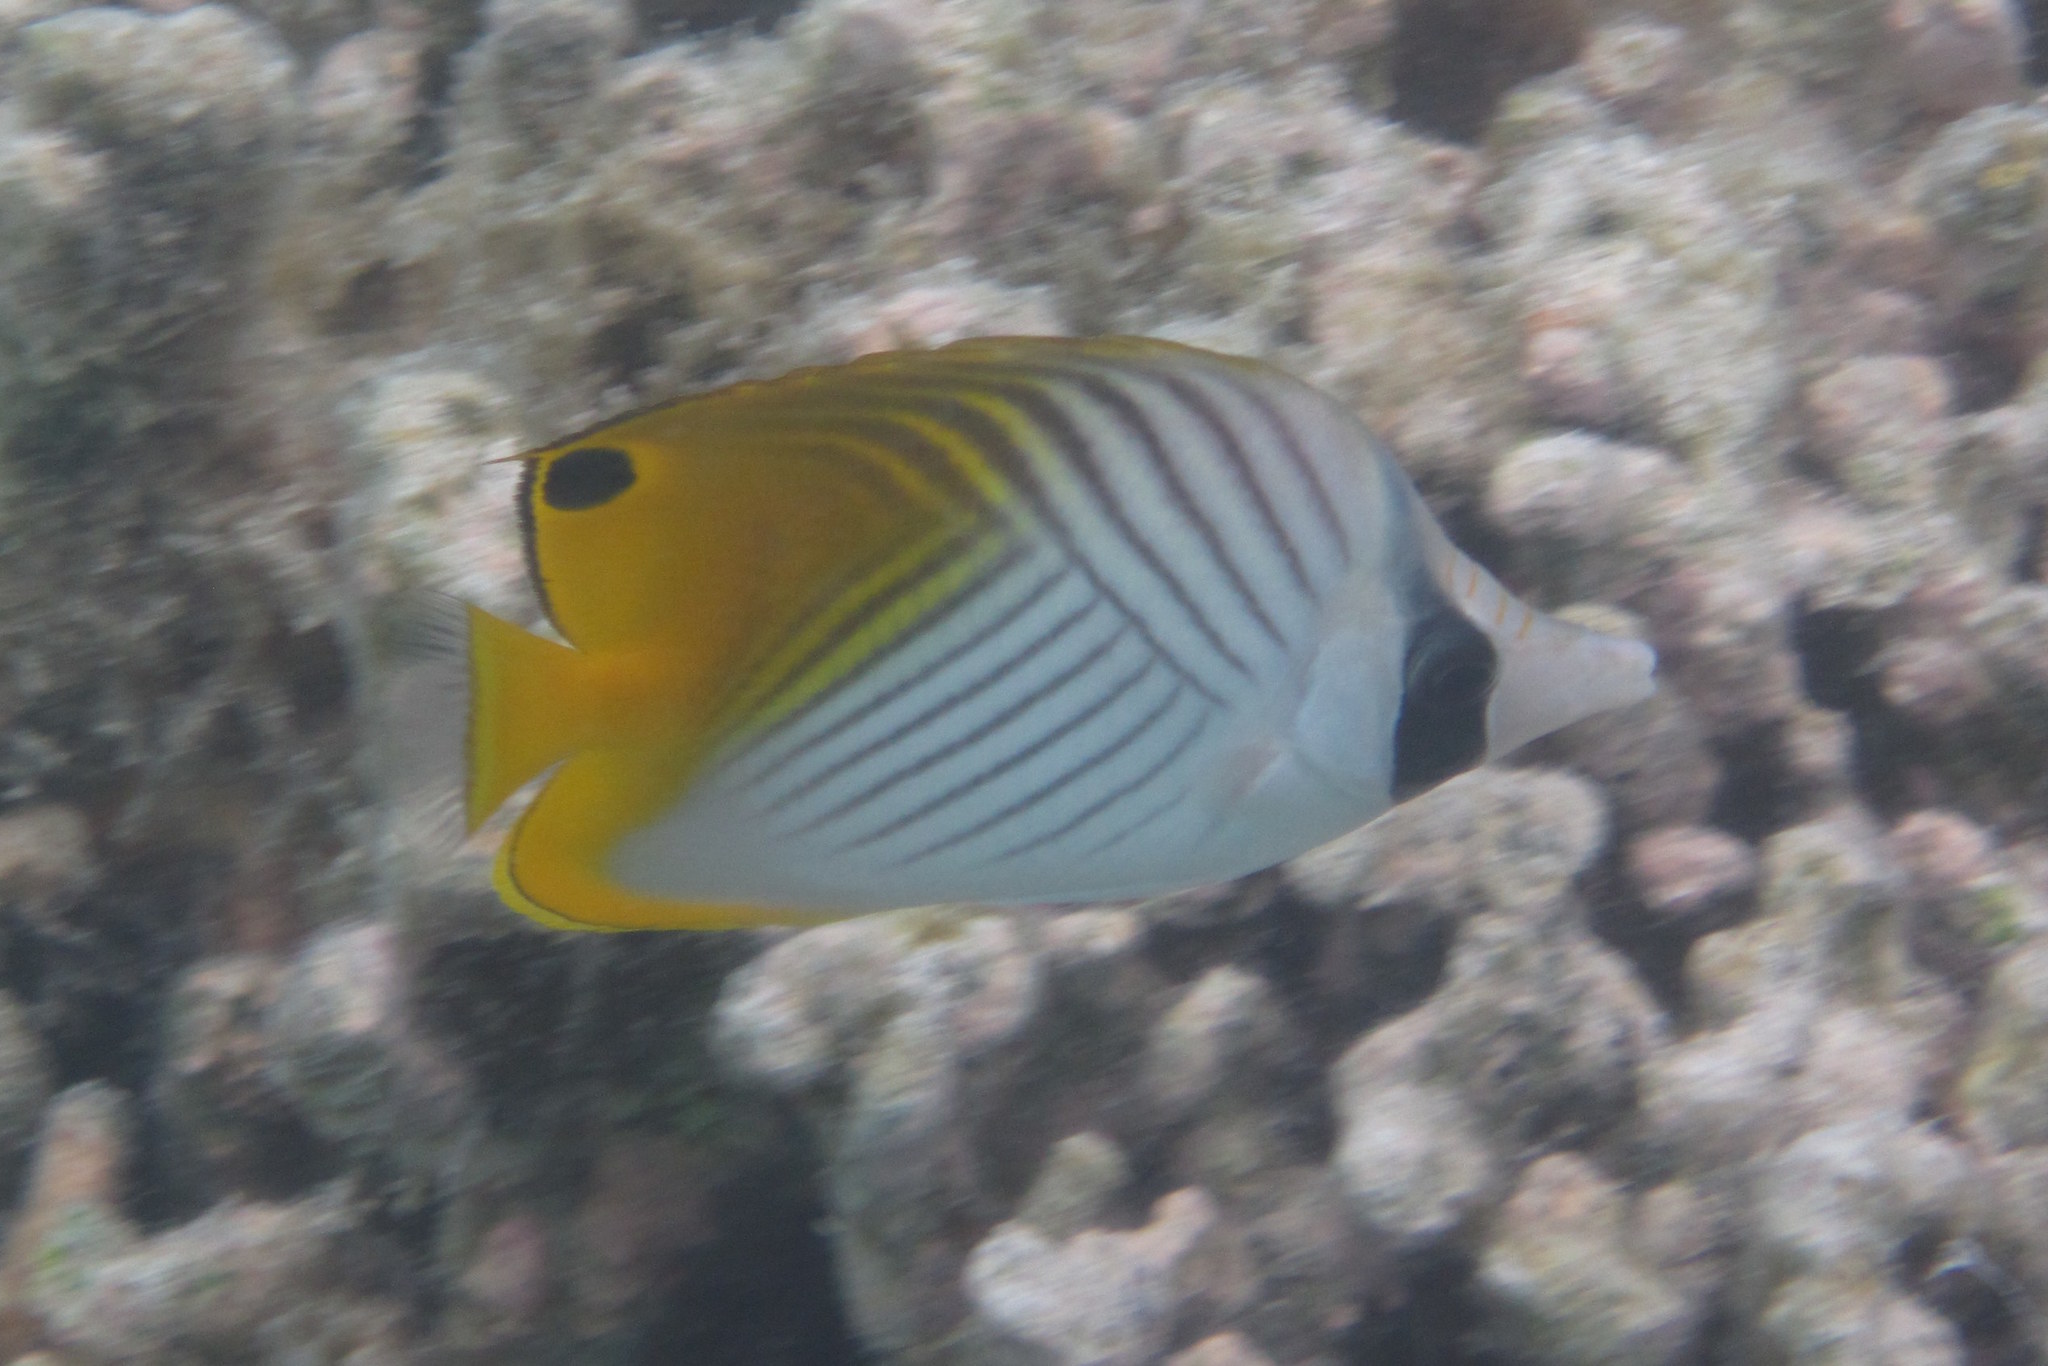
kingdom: Animalia
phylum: Chordata
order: Perciformes
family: Chaetodontidae
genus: Chaetodon
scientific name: Chaetodon auriga
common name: Threadfin butterflyfish
